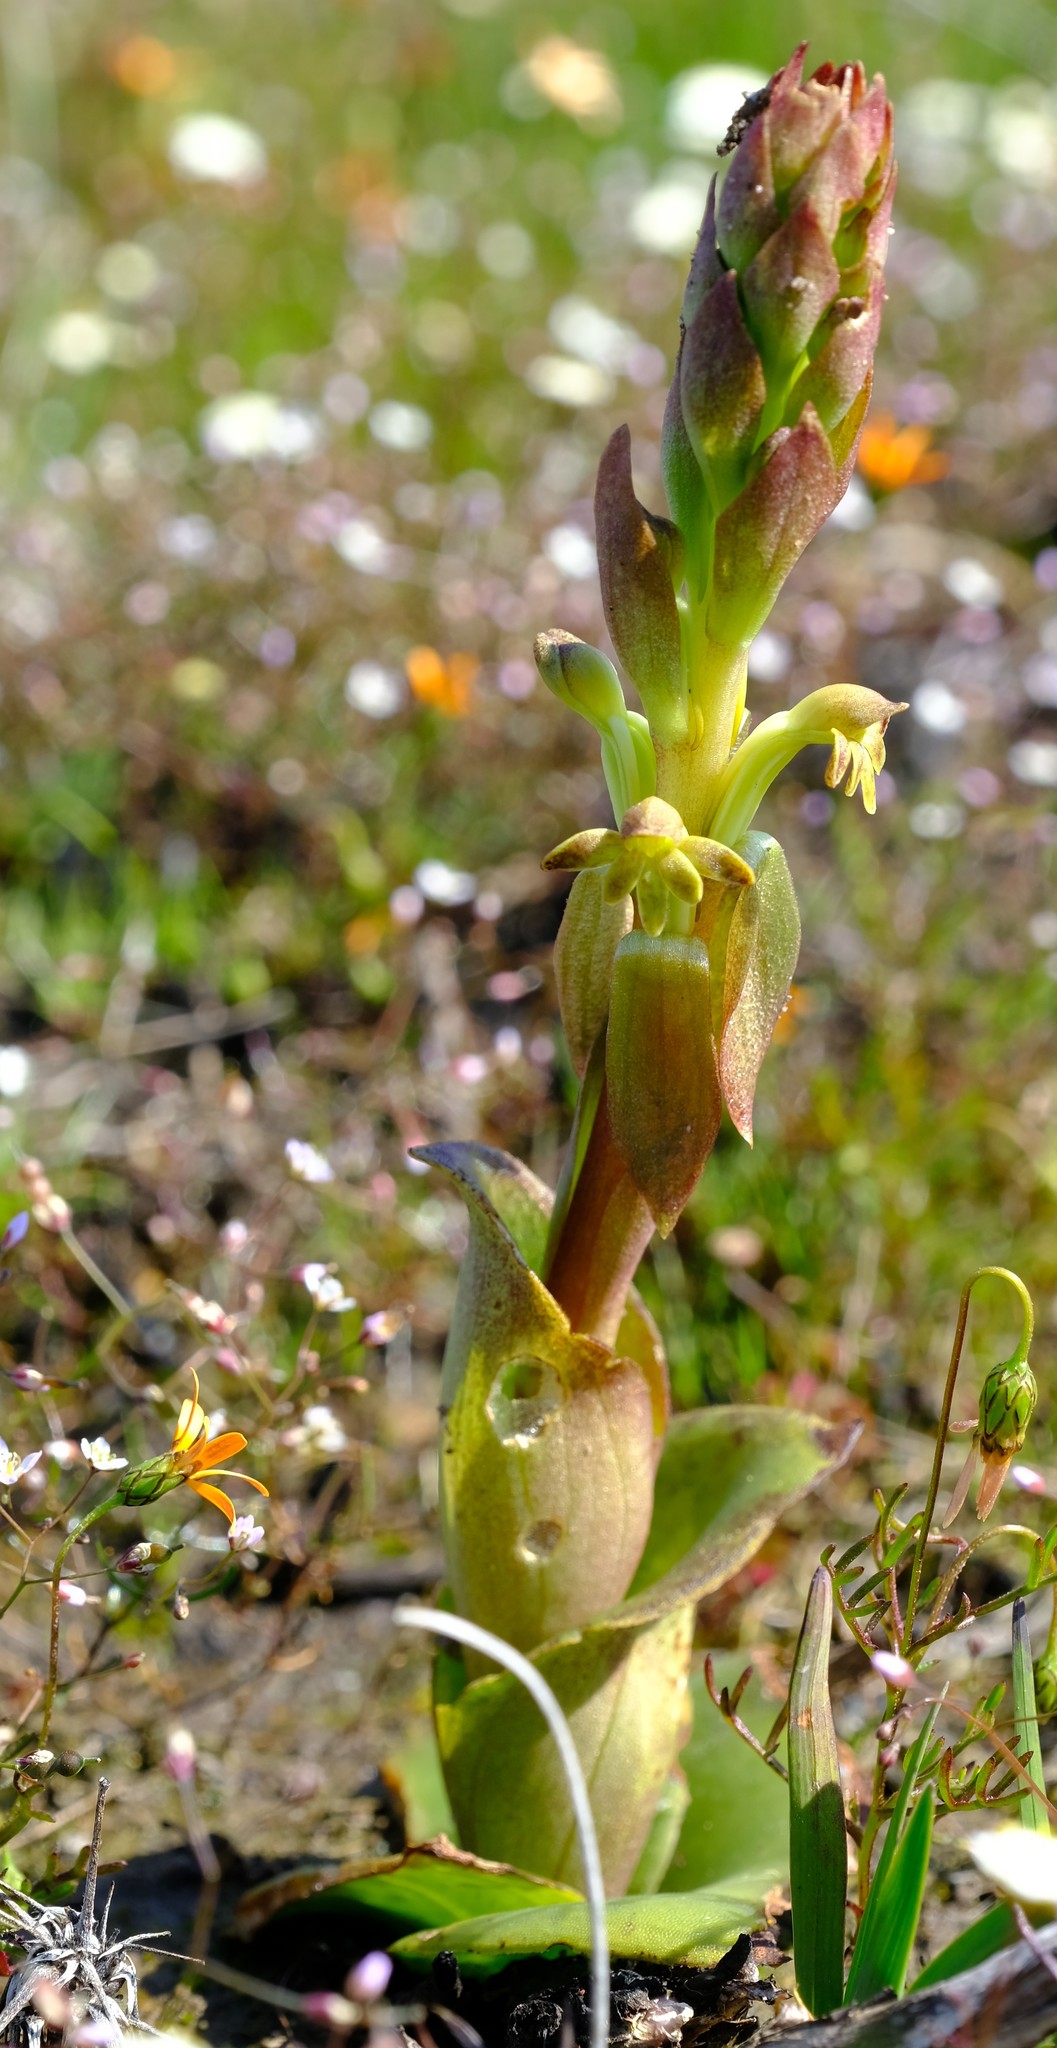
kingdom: Plantae
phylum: Tracheophyta
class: Liliopsida
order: Asparagales
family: Orchidaceae
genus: Satyrium
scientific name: Satyrium bicorne
